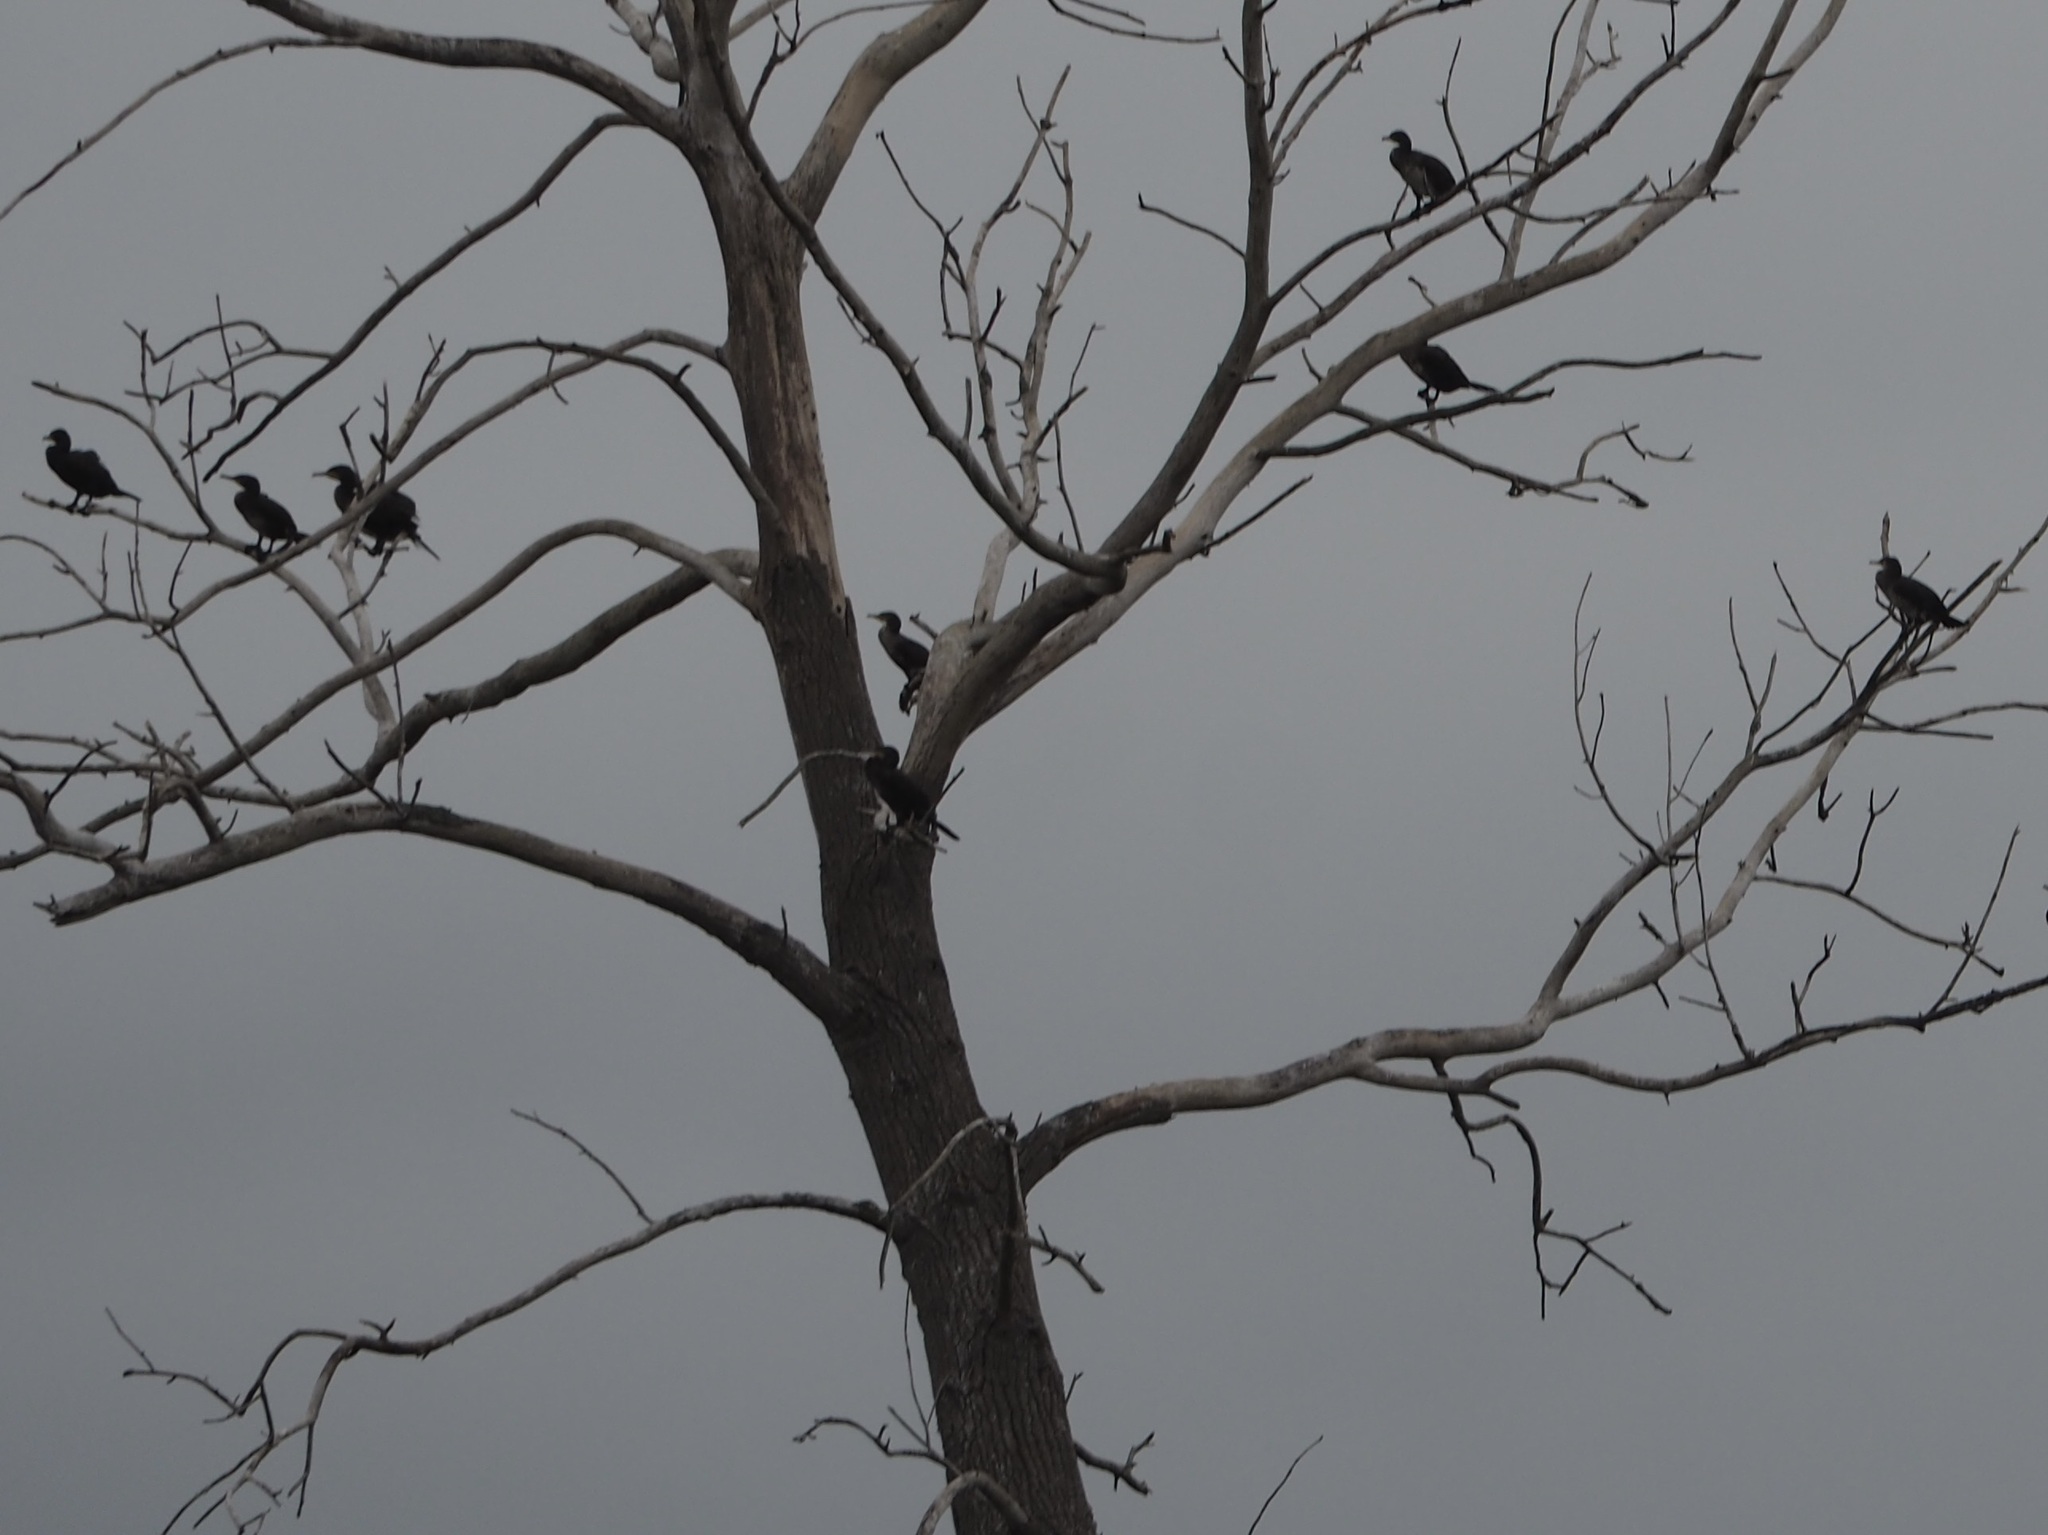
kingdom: Animalia
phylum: Chordata
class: Aves
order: Suliformes
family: Phalacrocoracidae
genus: Phalacrocorax
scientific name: Phalacrocorax carbo
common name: Great cormorant
